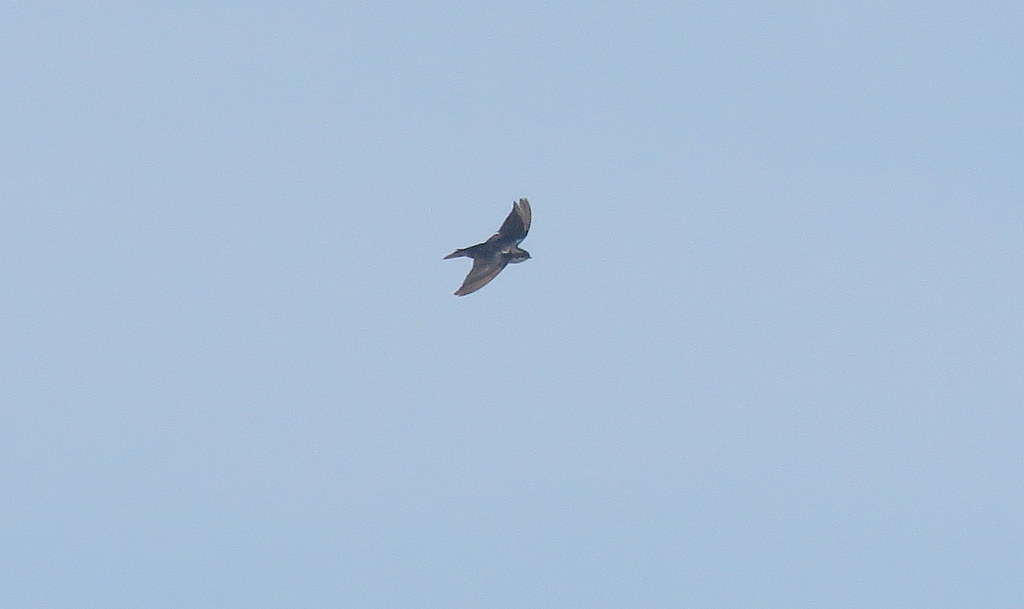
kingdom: Animalia
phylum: Chordata
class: Aves
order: Passeriformes
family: Hirundinidae
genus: Notiochelidon
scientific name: Notiochelidon cyanoleuca
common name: Blue-and-white swallow
